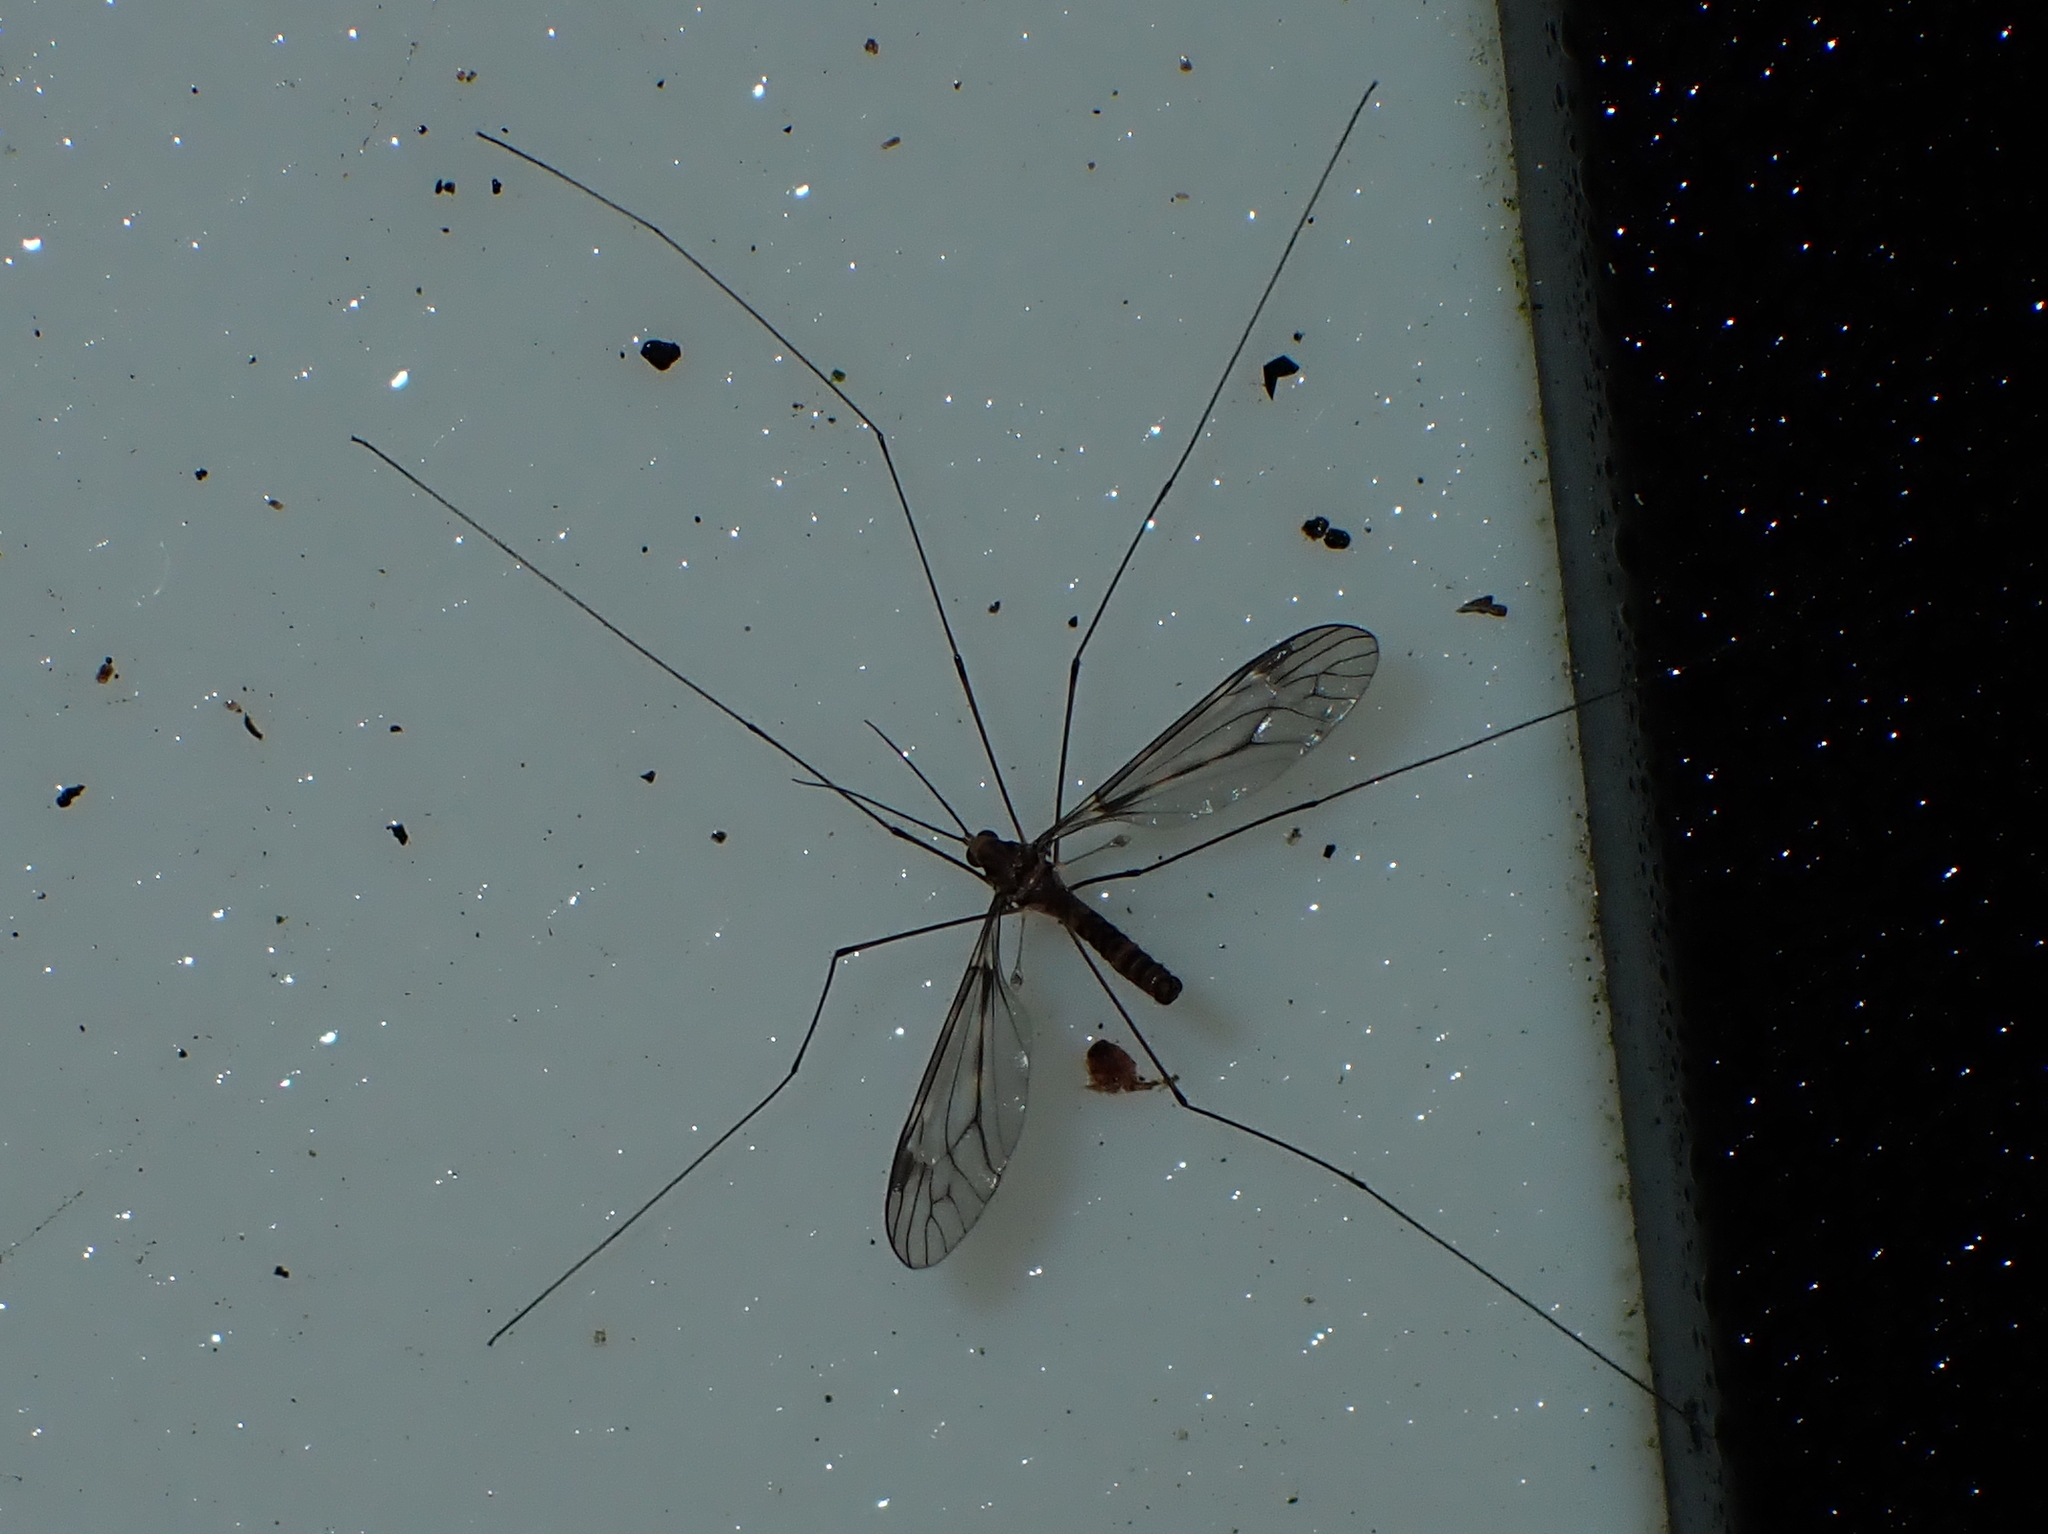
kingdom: Animalia
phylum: Arthropoda
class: Insecta
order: Diptera
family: Tipulidae
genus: Leptotarsus
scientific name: Leptotarsus cubitalis
